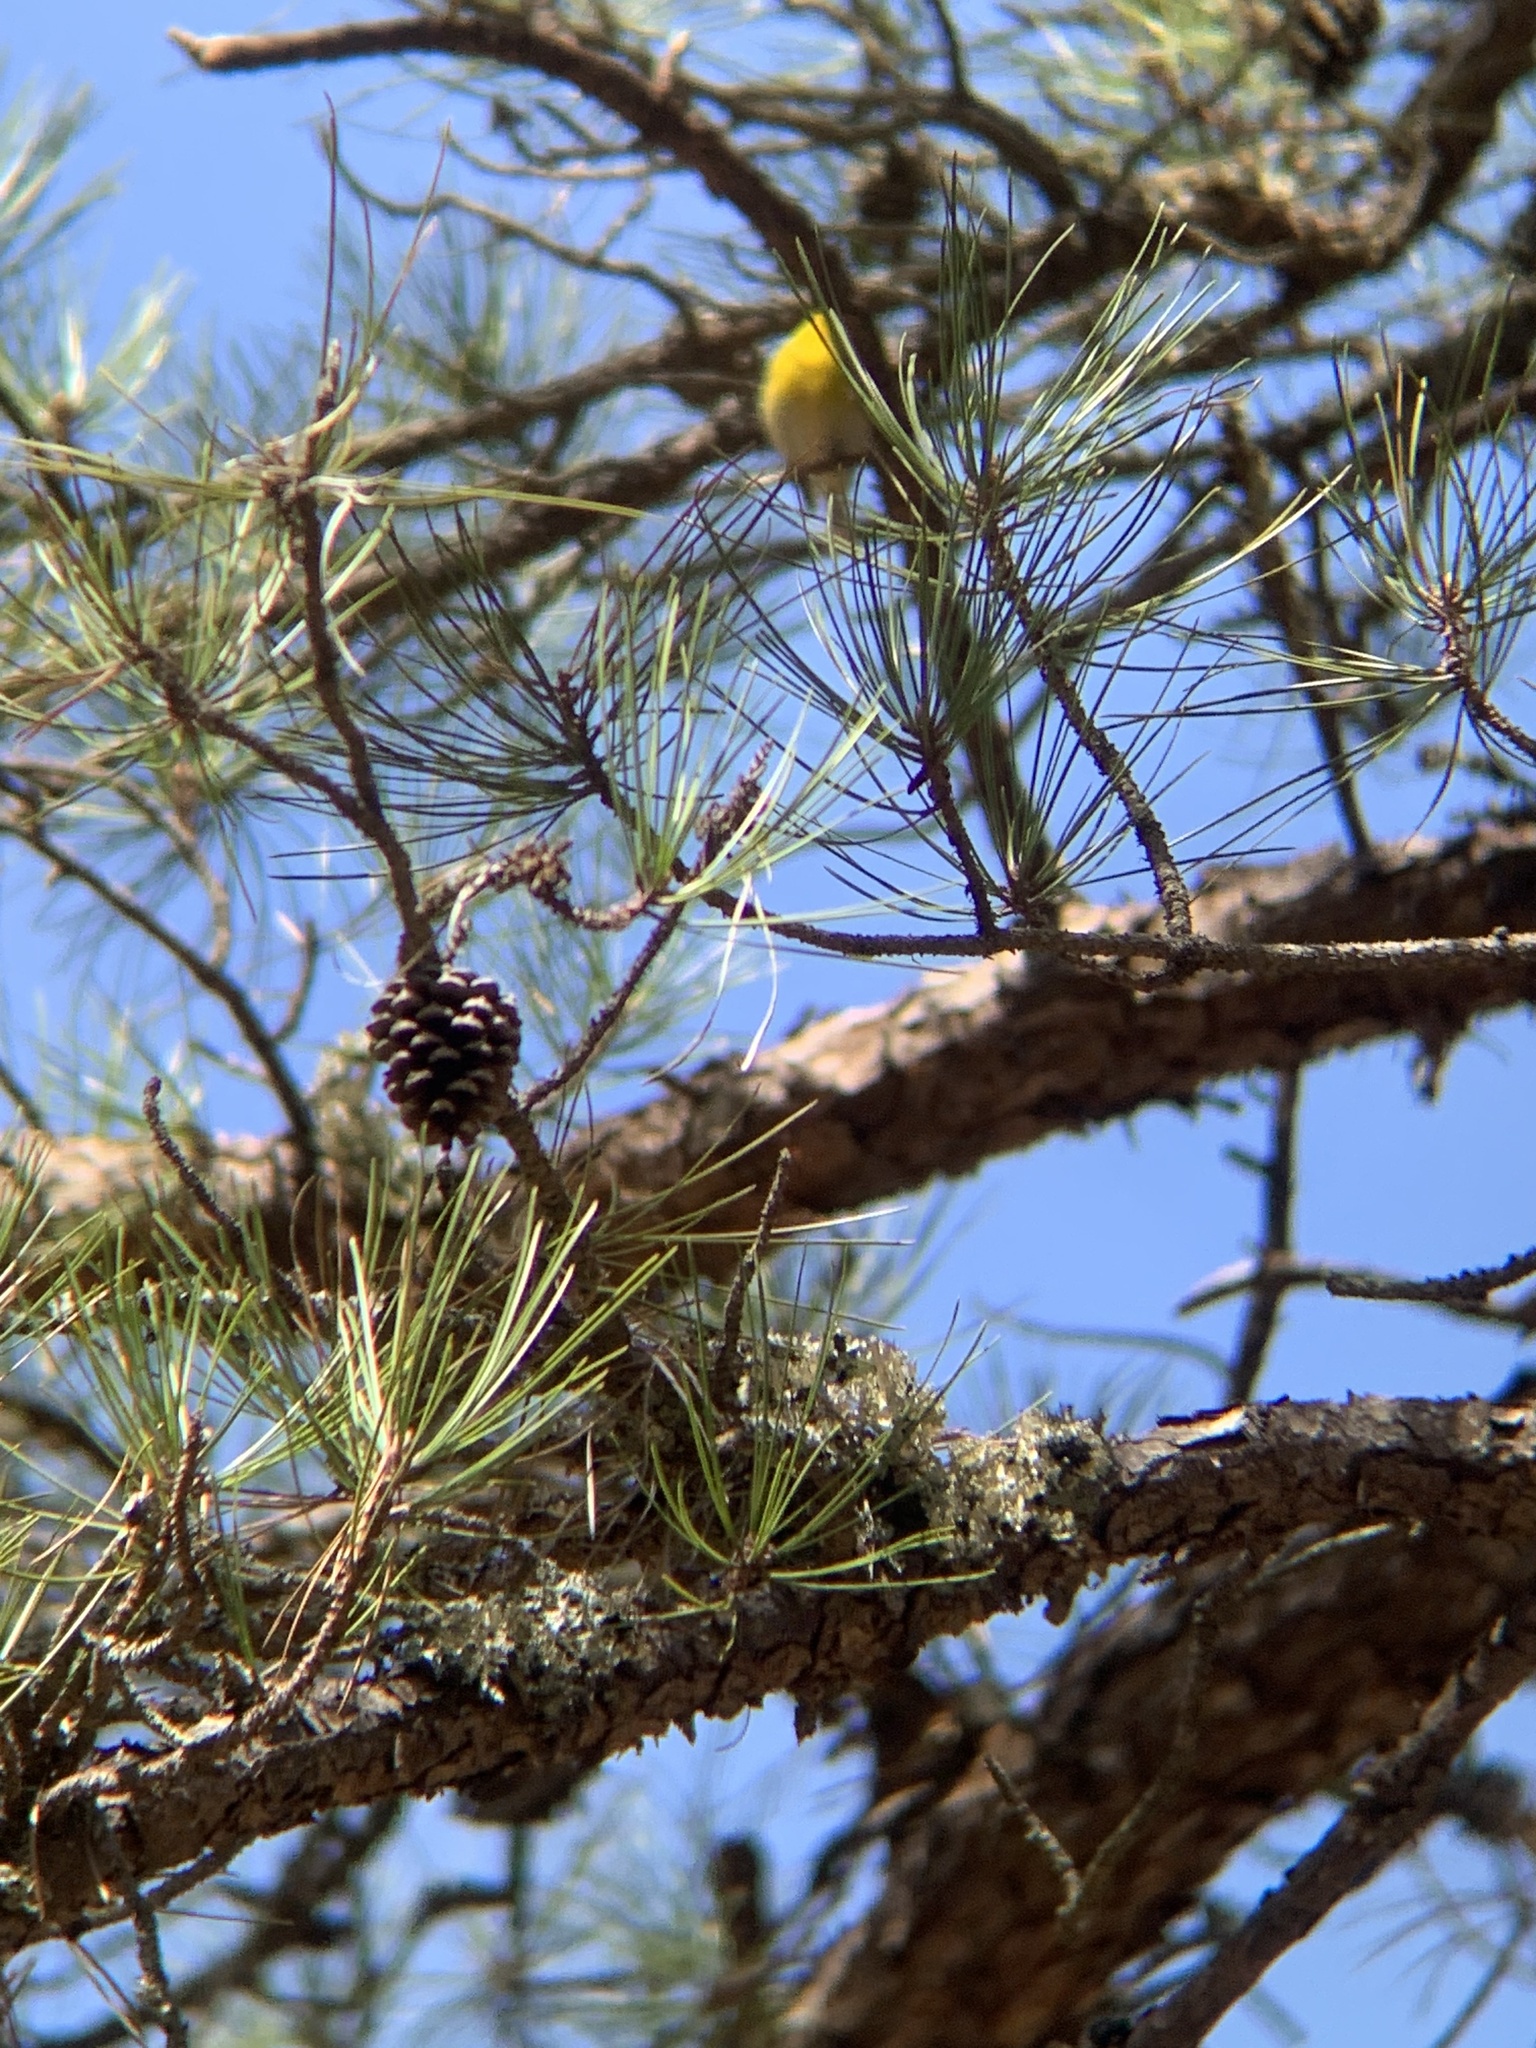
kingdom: Animalia
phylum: Chordata
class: Aves
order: Passeriformes
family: Parulidae
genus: Setophaga
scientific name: Setophaga pinus
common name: Pine warbler
